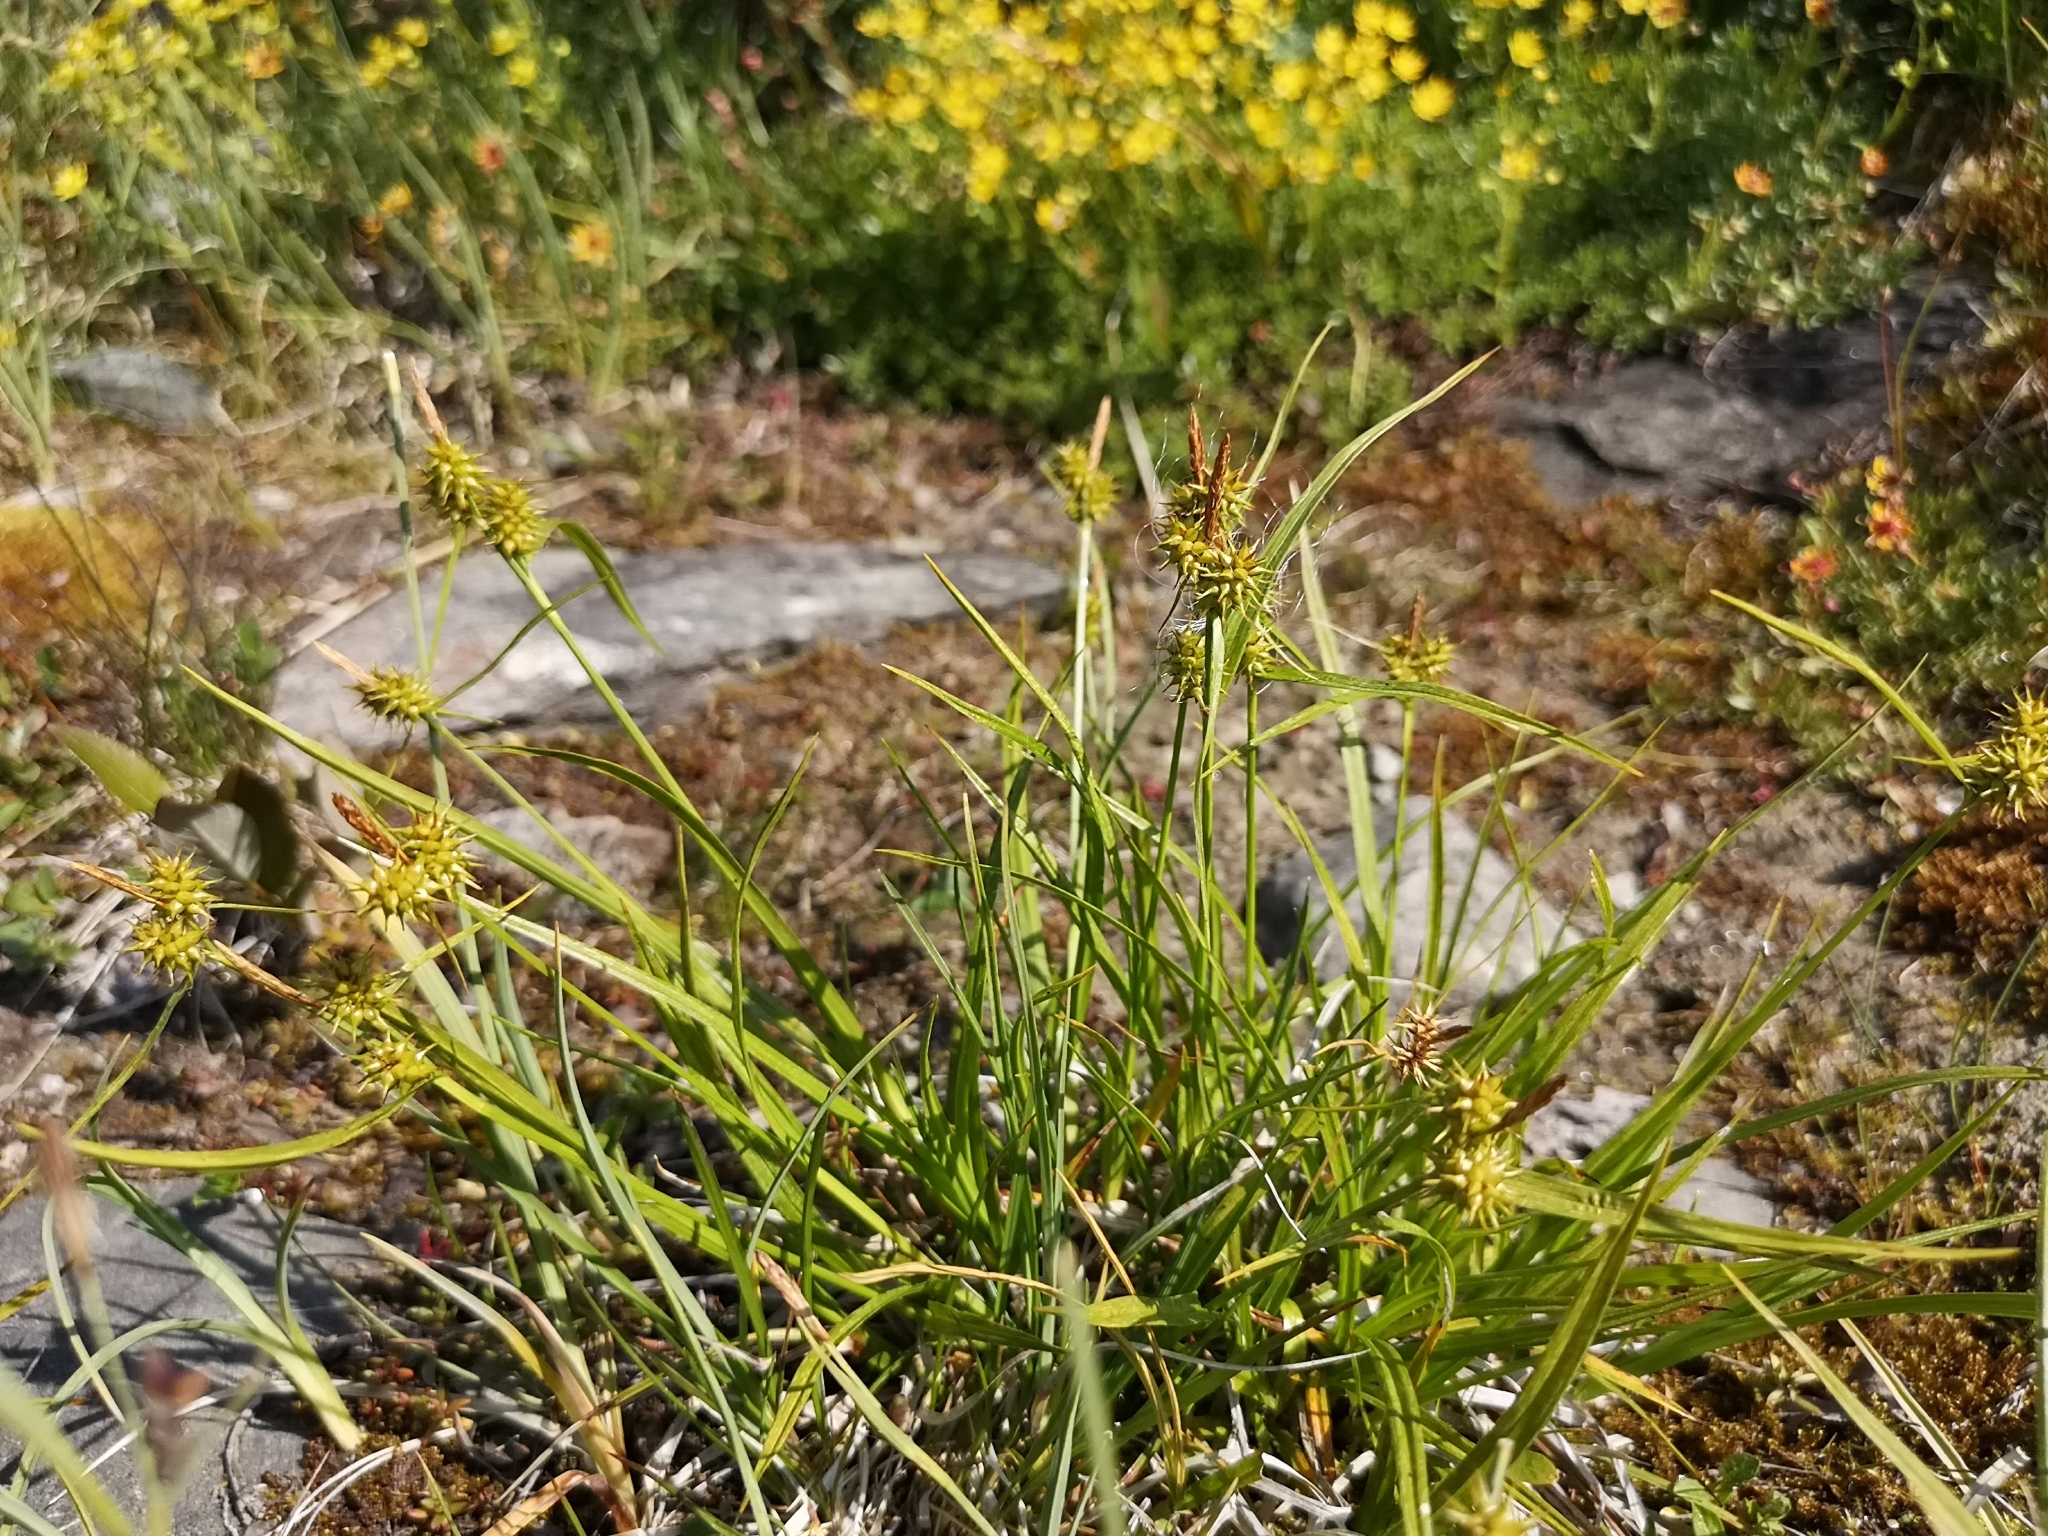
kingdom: Plantae
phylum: Tracheophyta
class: Liliopsida
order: Poales
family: Cyperaceae
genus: Carex
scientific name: Carex flava
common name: Large yellow-sedge
